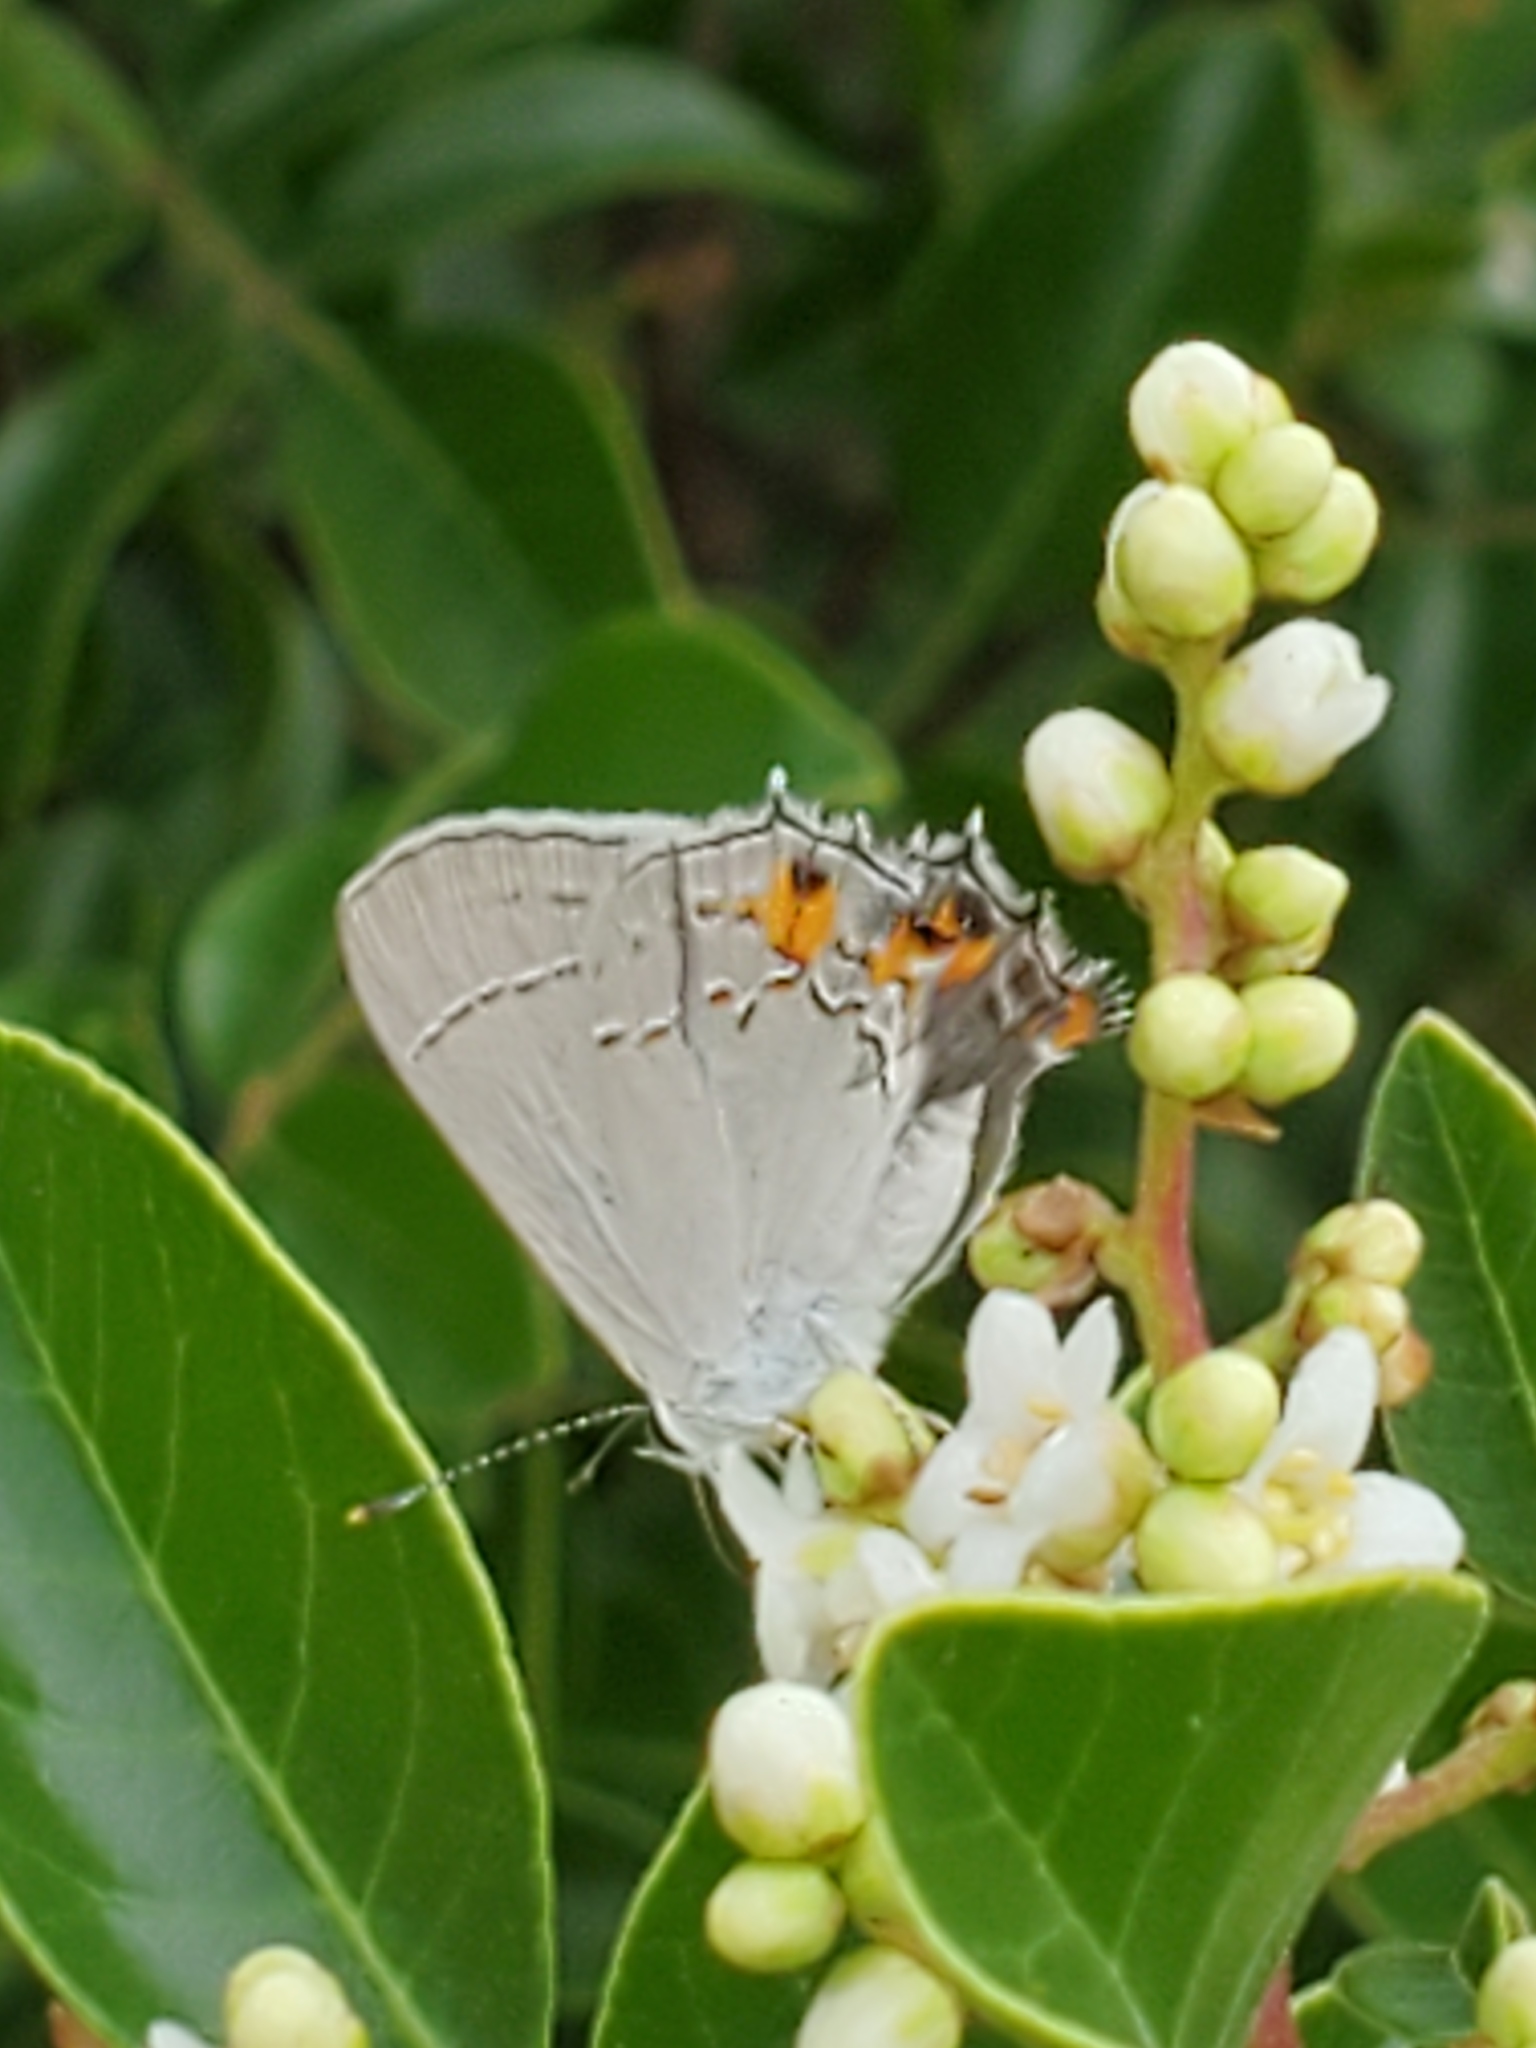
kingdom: Animalia
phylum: Arthropoda
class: Insecta
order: Lepidoptera
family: Lycaenidae
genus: Strymon
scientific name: Strymon melinus
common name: Gray hairstreak
